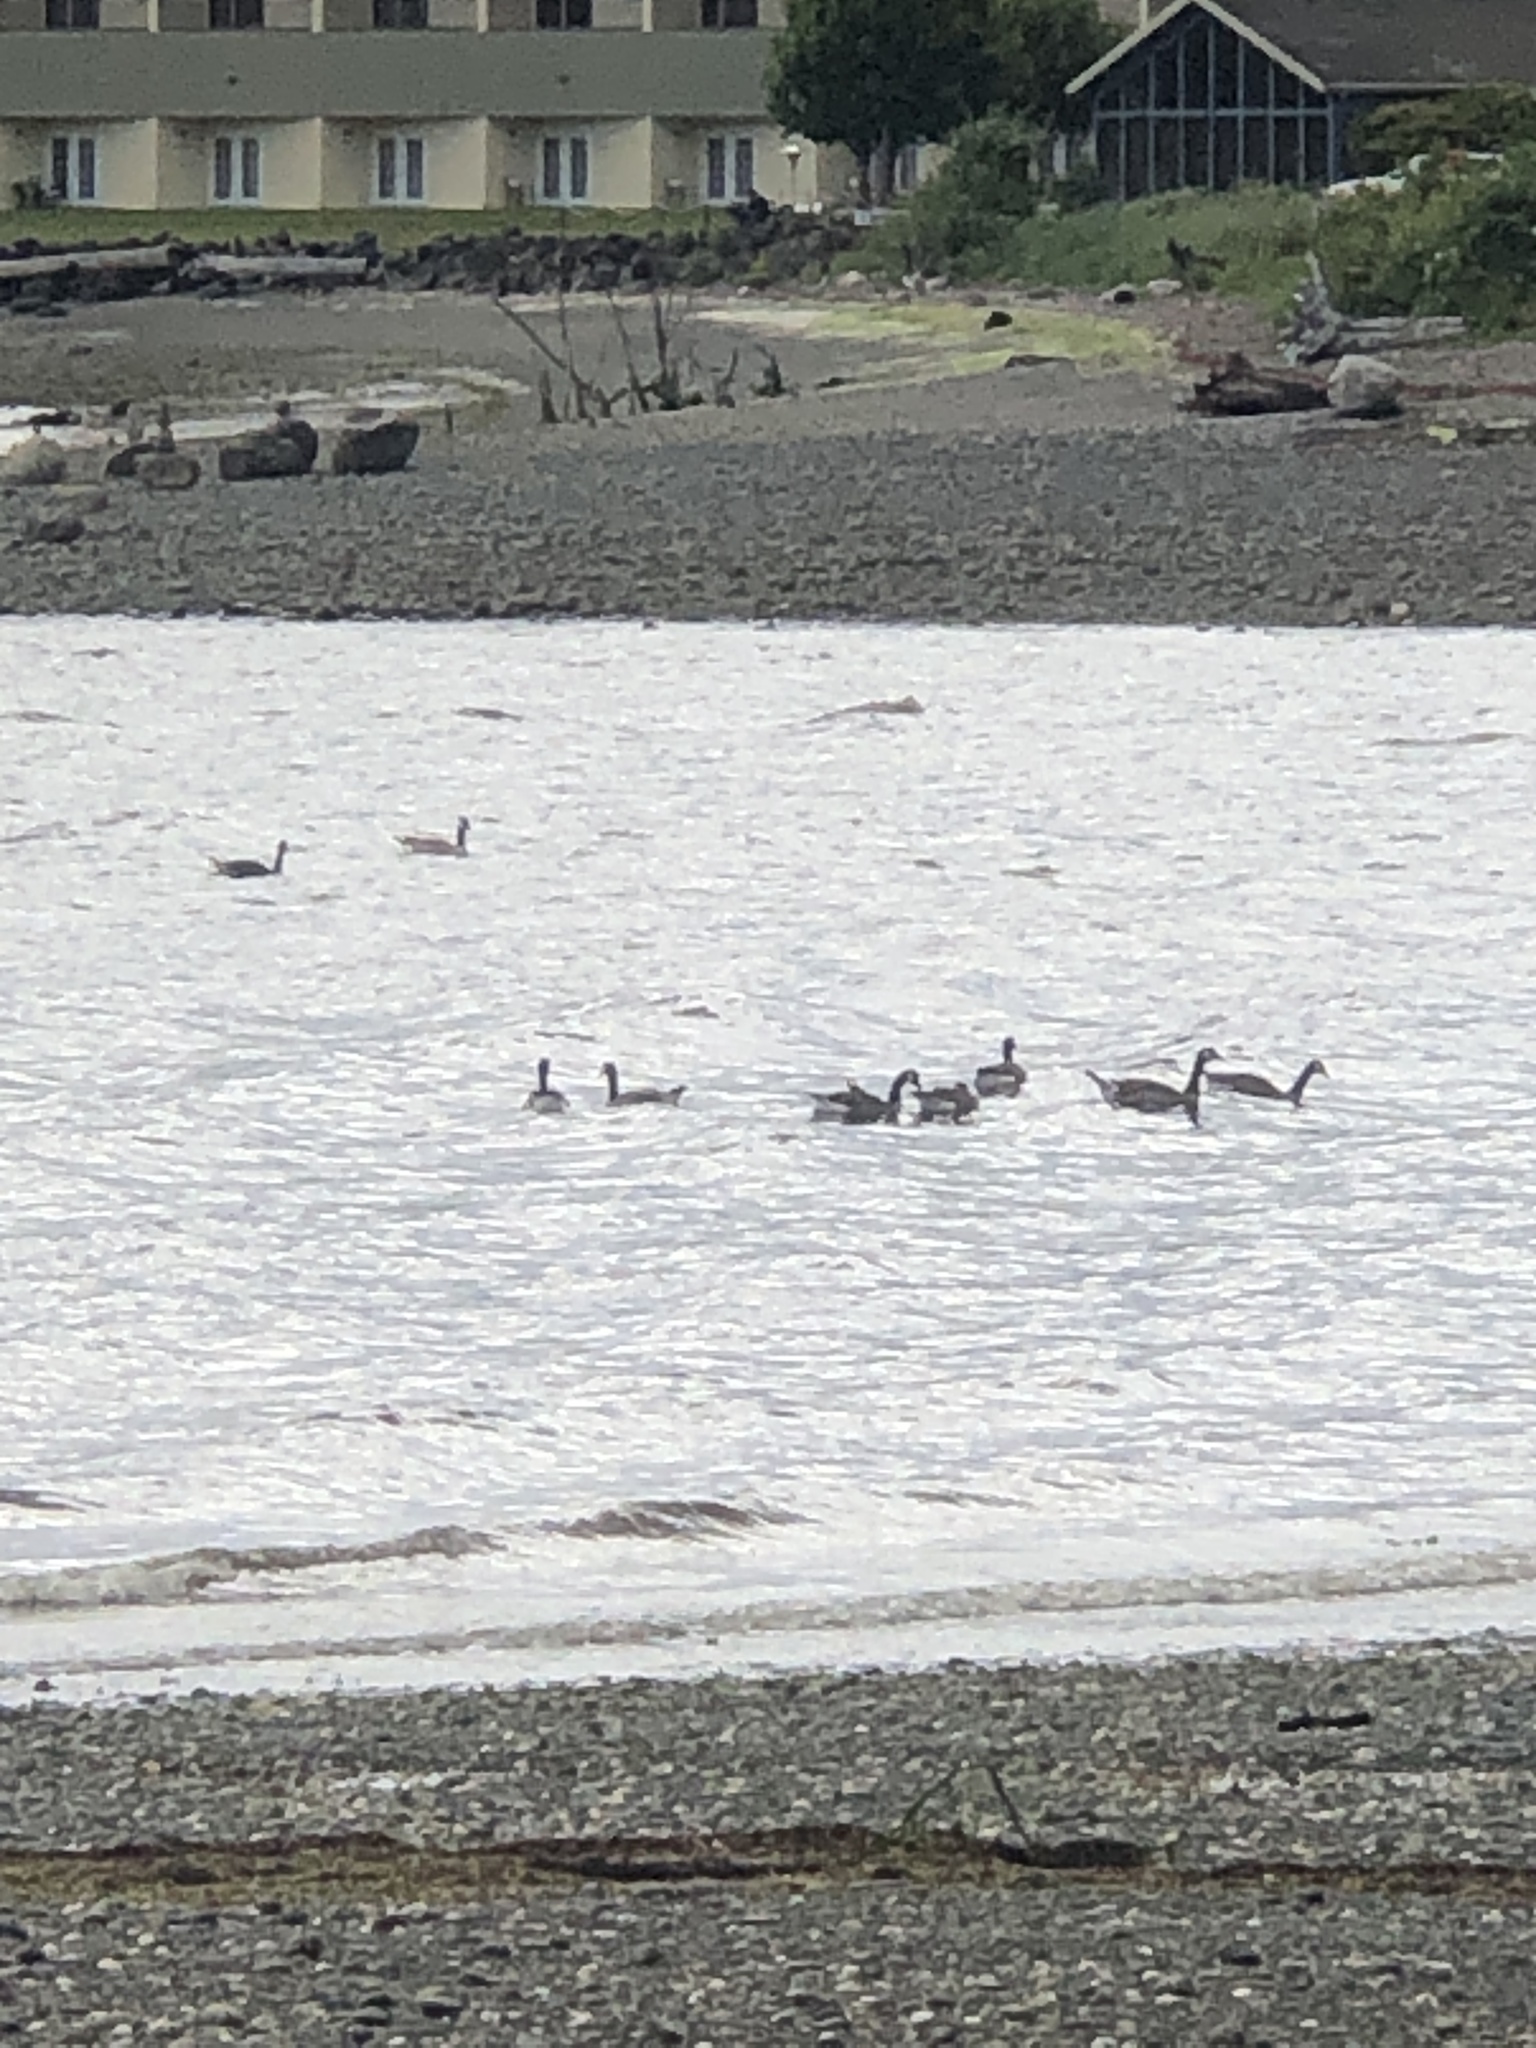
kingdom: Animalia
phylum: Chordata
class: Aves
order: Anseriformes
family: Anatidae
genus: Branta
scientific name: Branta canadensis
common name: Canada goose
